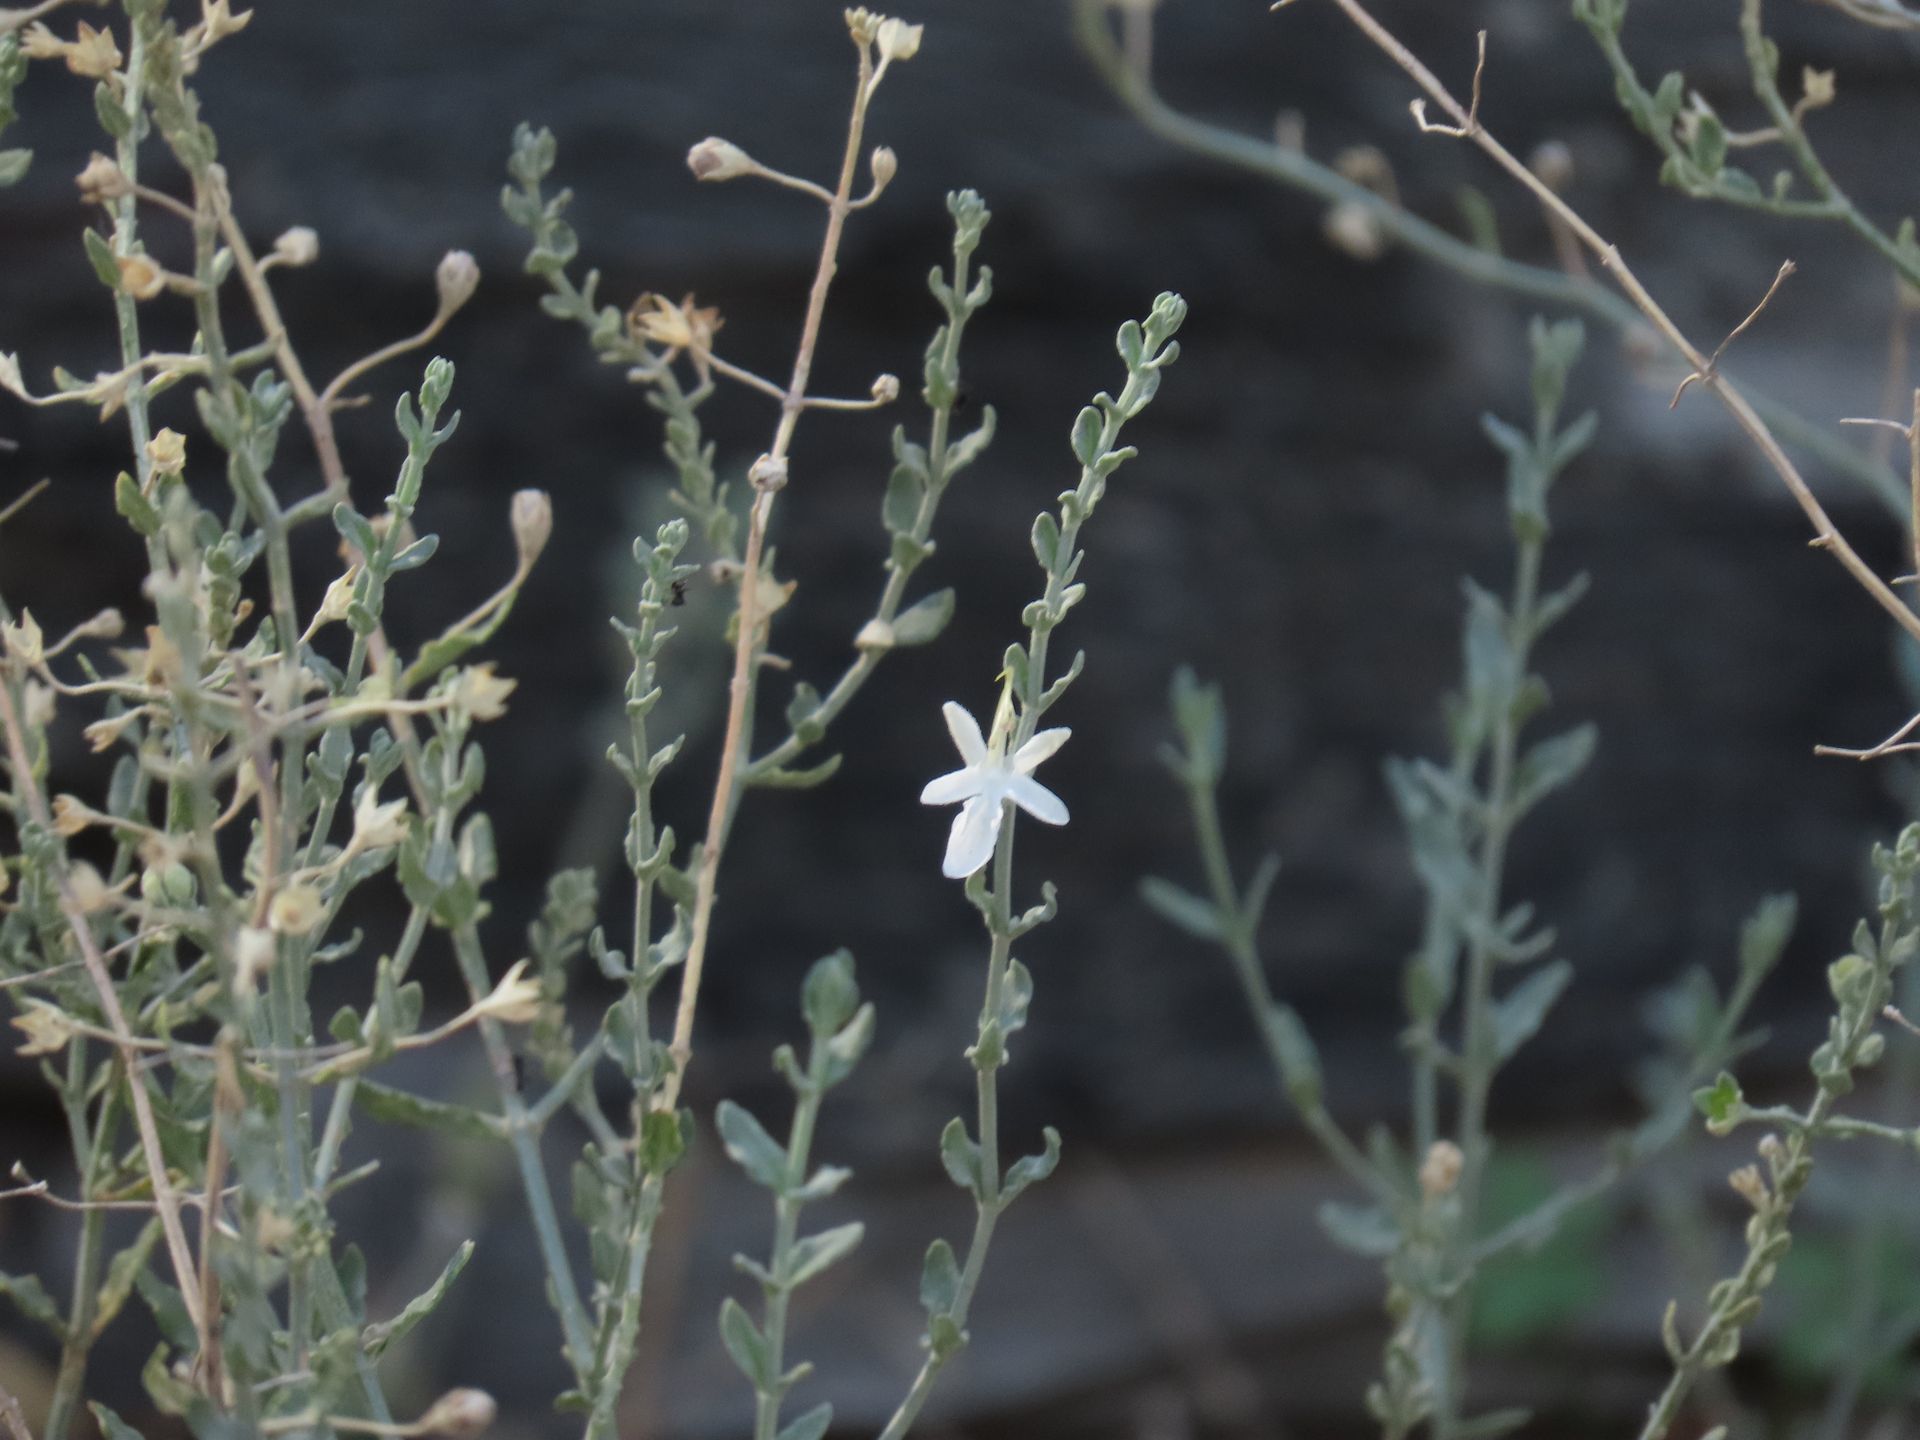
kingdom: Plantae
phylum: Tracheophyta
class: Magnoliopsida
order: Lamiales
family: Lamiaceae
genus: Teucrium
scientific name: Teucrium racemosum
